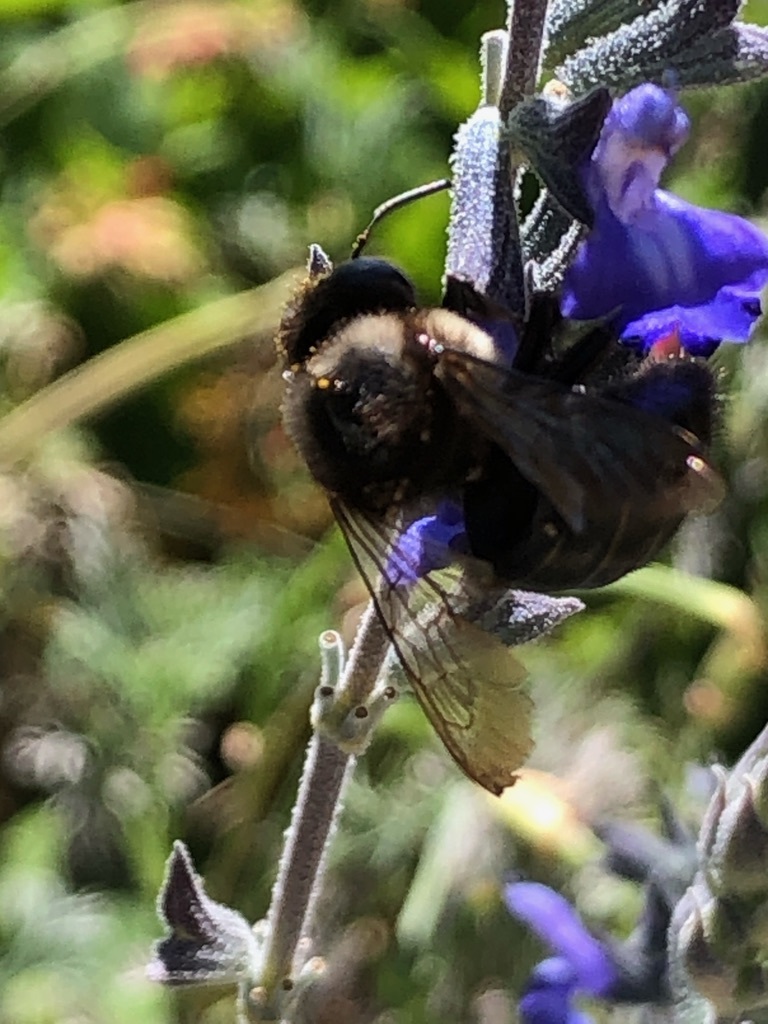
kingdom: Animalia
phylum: Arthropoda
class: Insecta
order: Hymenoptera
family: Apidae
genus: Xylocopa
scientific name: Xylocopa tabaniformis
